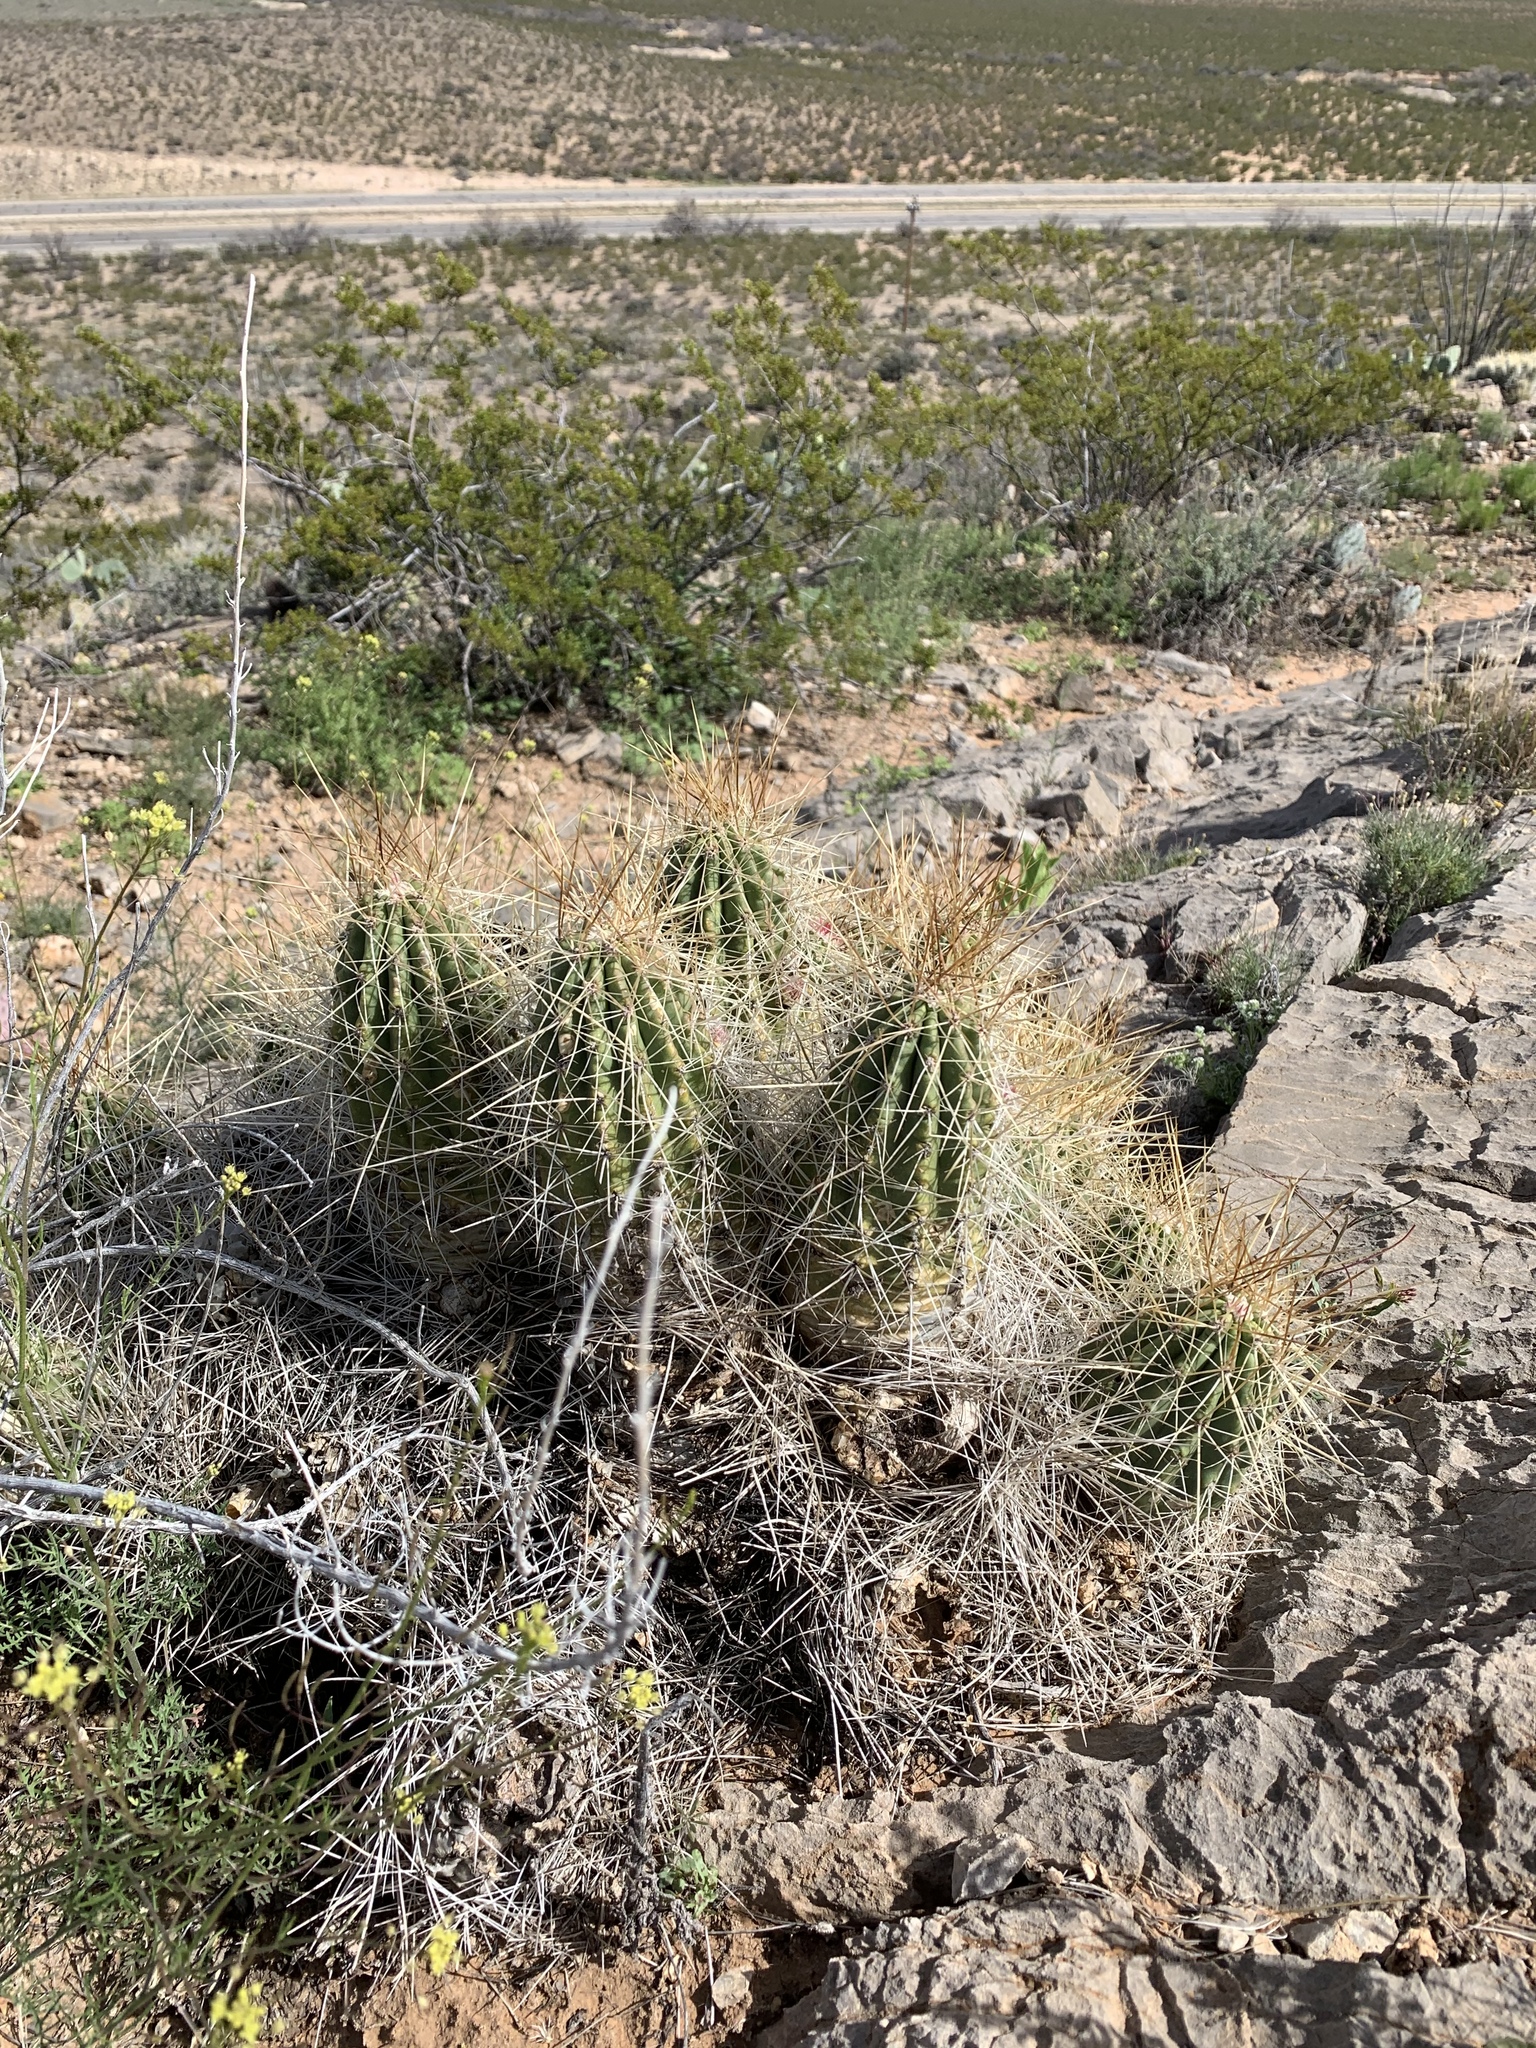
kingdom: Plantae
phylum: Tracheophyta
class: Magnoliopsida
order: Caryophyllales
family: Cactaceae
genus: Echinocereus
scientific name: Echinocereus stramineus
